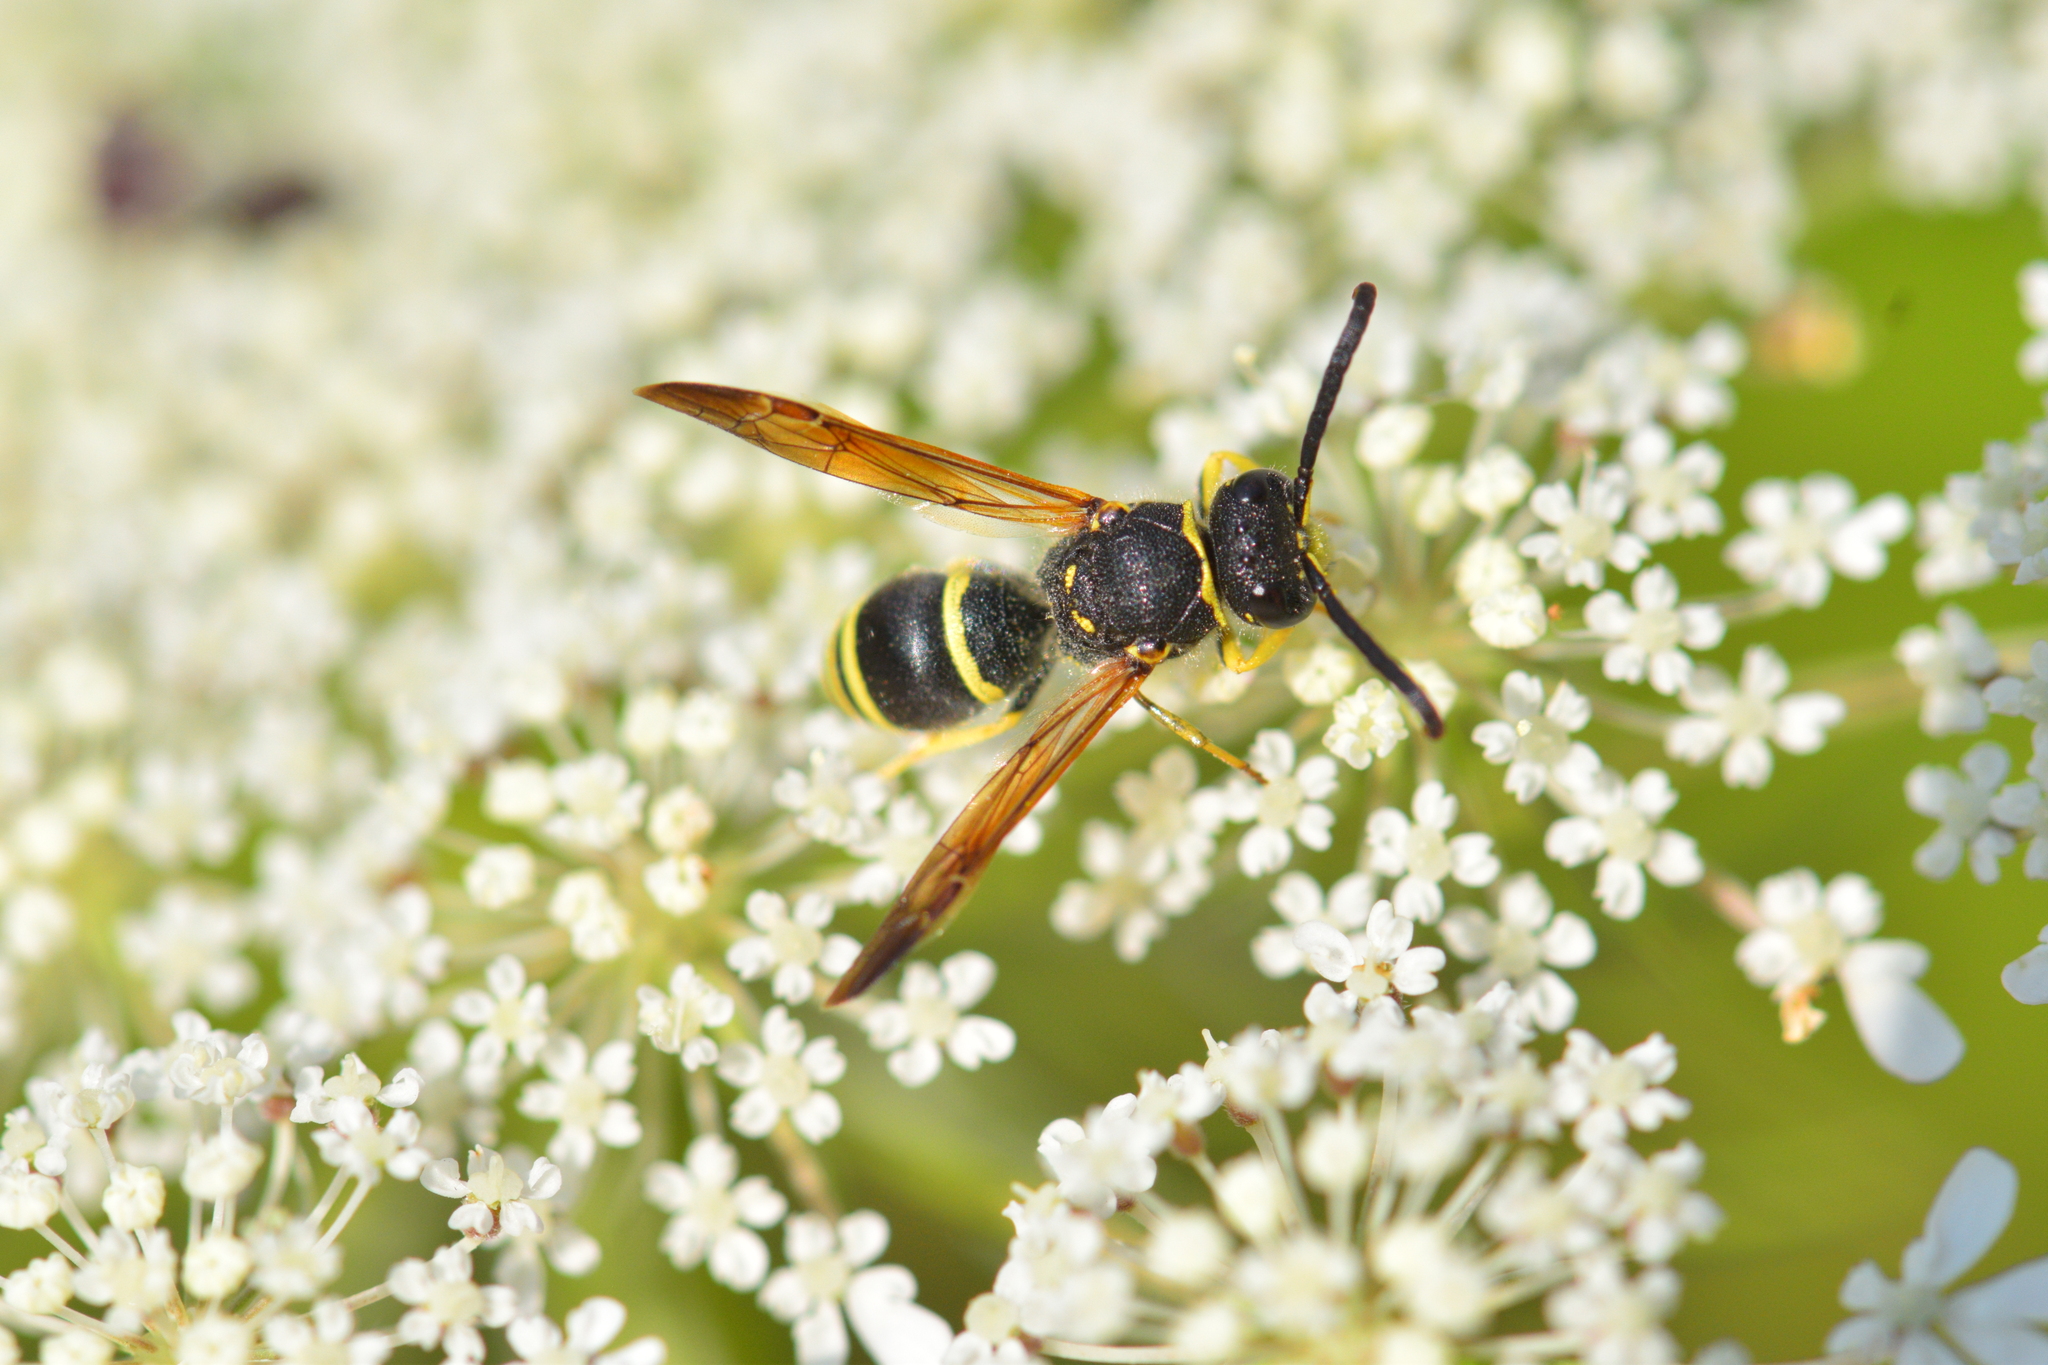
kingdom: Animalia
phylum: Arthropoda
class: Insecta
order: Hymenoptera
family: Vespidae
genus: Ancistrocerus
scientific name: Ancistrocerus
